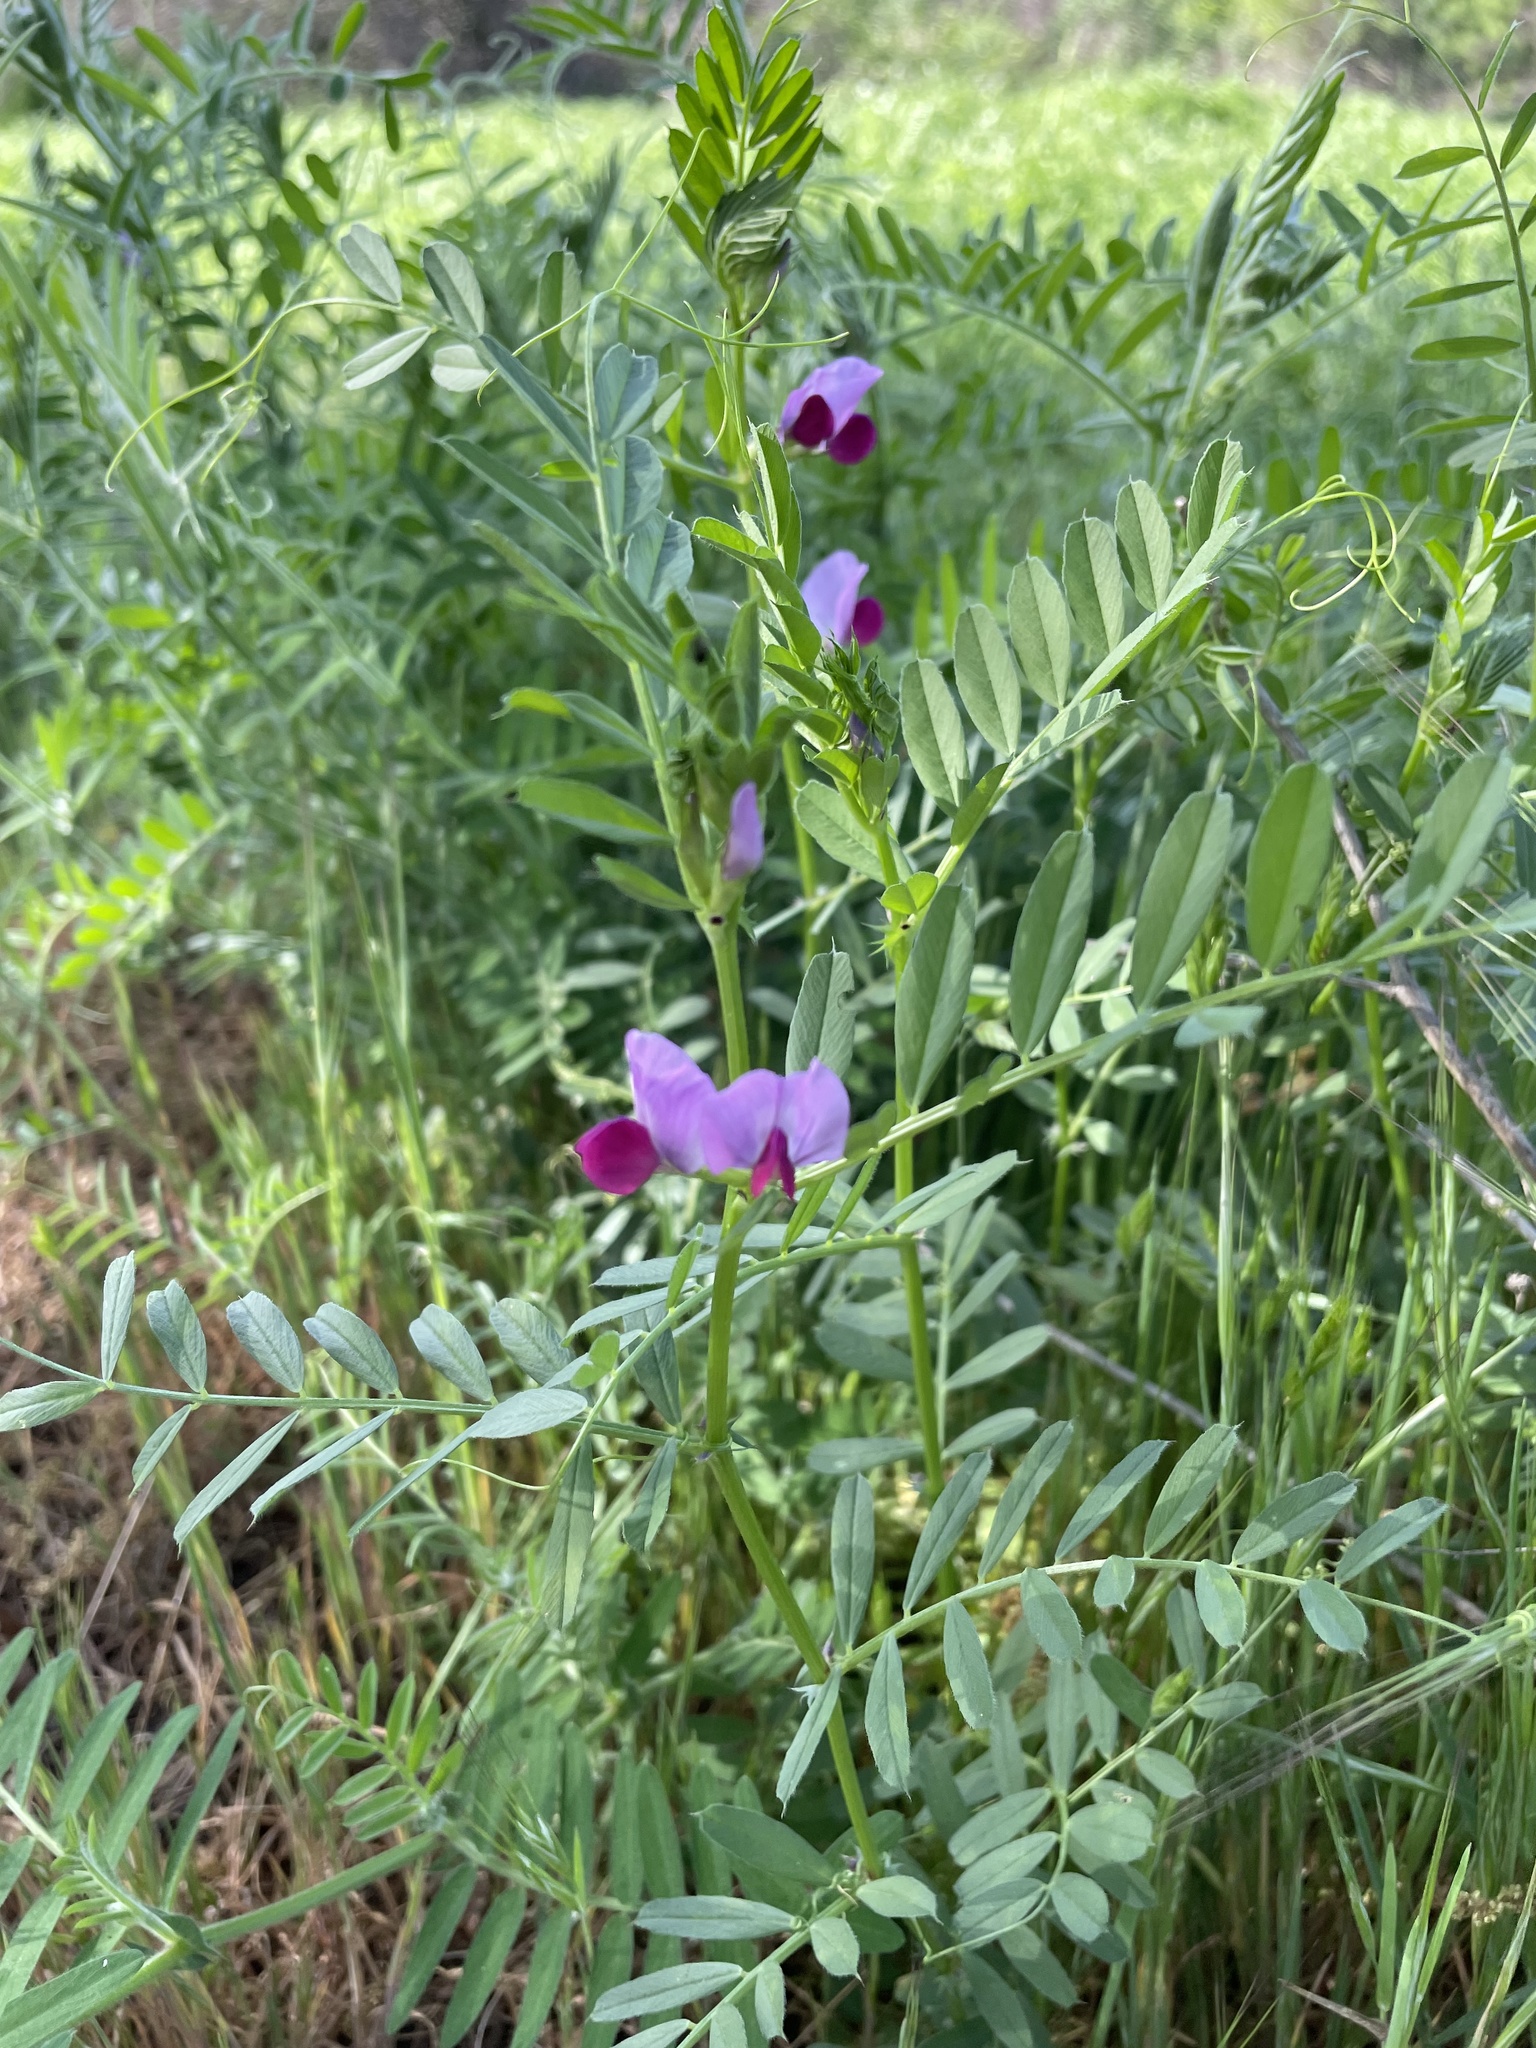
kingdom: Plantae
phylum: Tracheophyta
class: Magnoliopsida
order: Fabales
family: Fabaceae
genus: Vicia
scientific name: Vicia sativa
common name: Garden vetch
